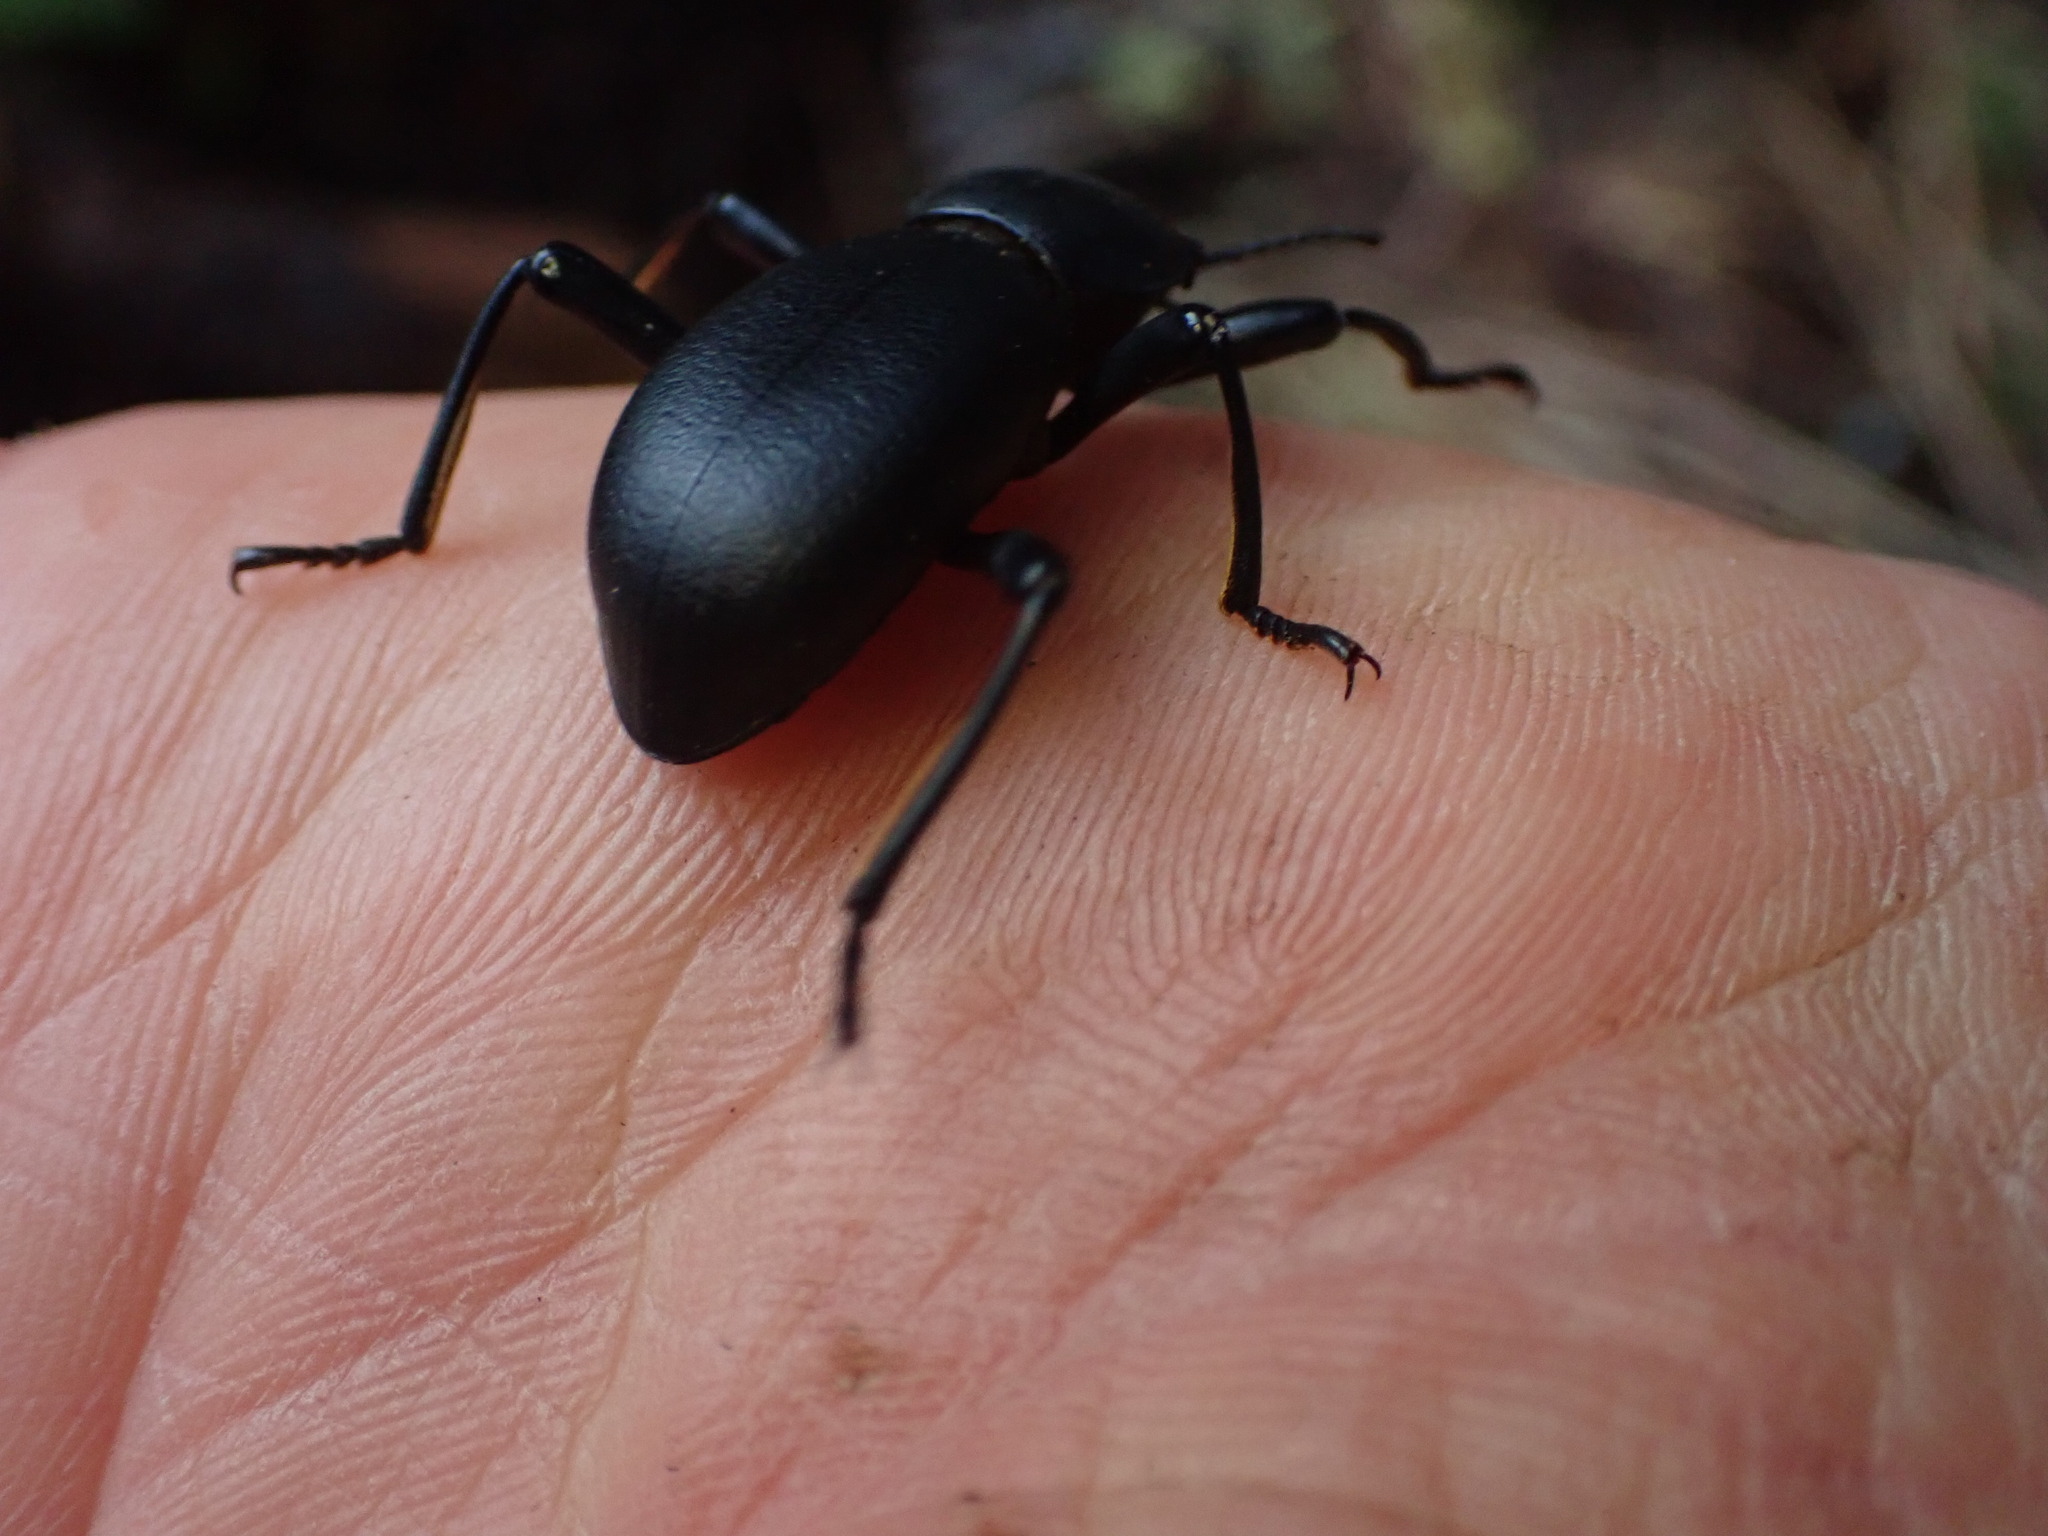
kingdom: Animalia
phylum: Arthropoda
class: Insecta
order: Coleoptera
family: Tenebrionidae
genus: Coelocnemis
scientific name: Coelocnemis dilaticollis
